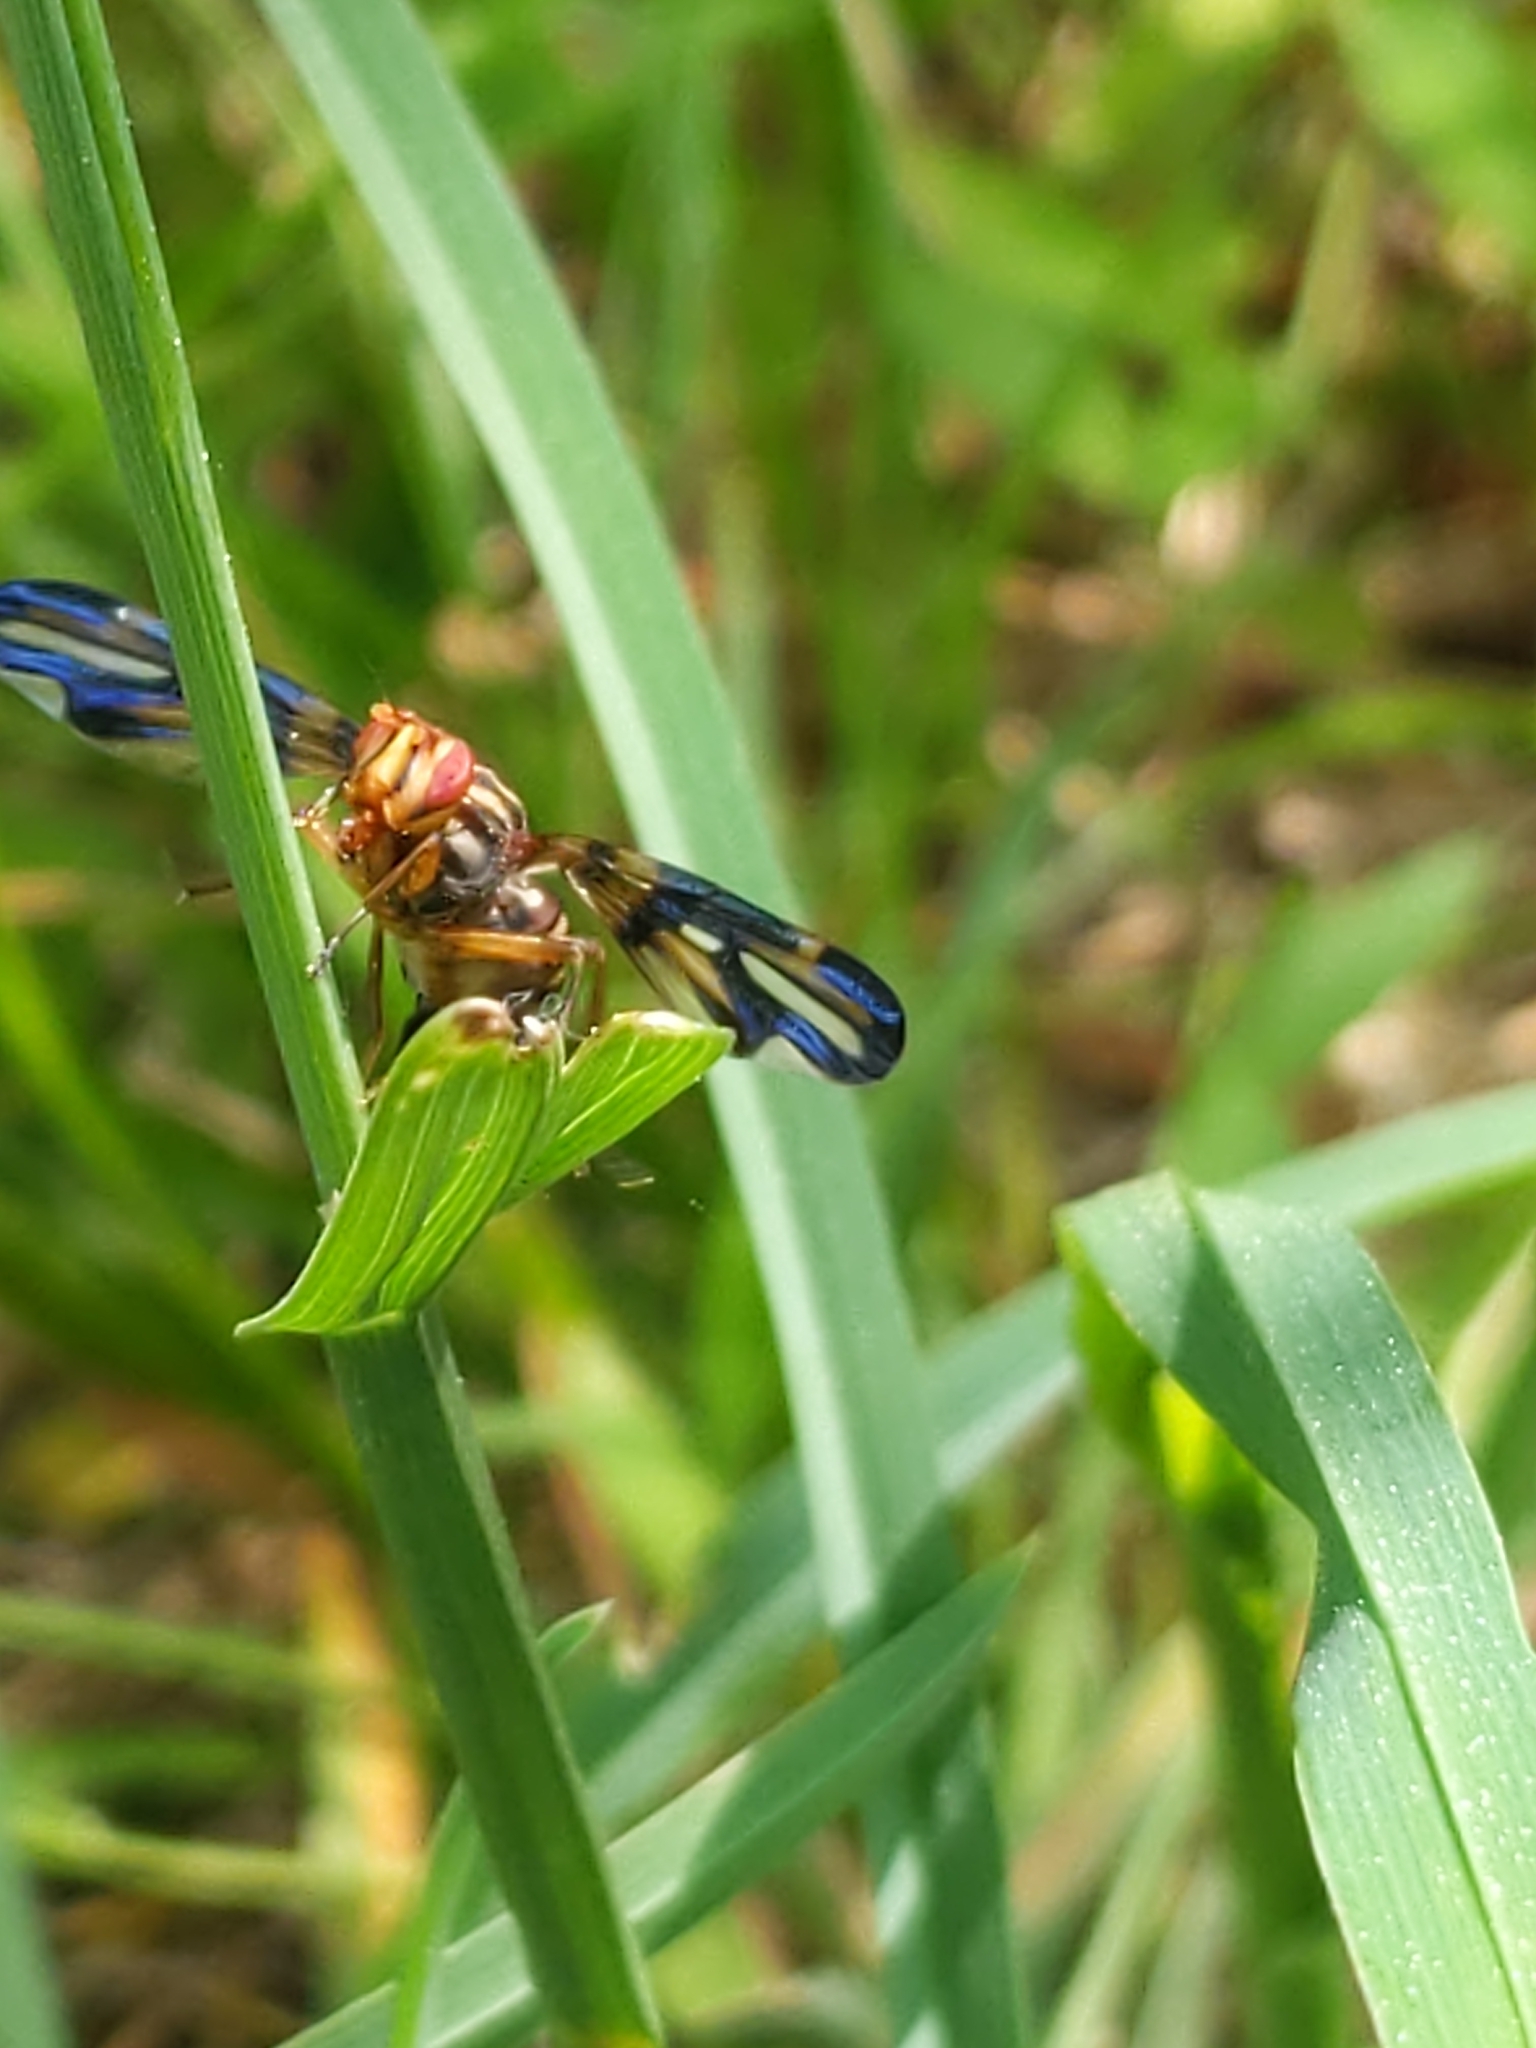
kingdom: Animalia
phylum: Arthropoda
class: Insecta
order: Diptera
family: Ulidiidae
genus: Idana
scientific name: Idana marginata
